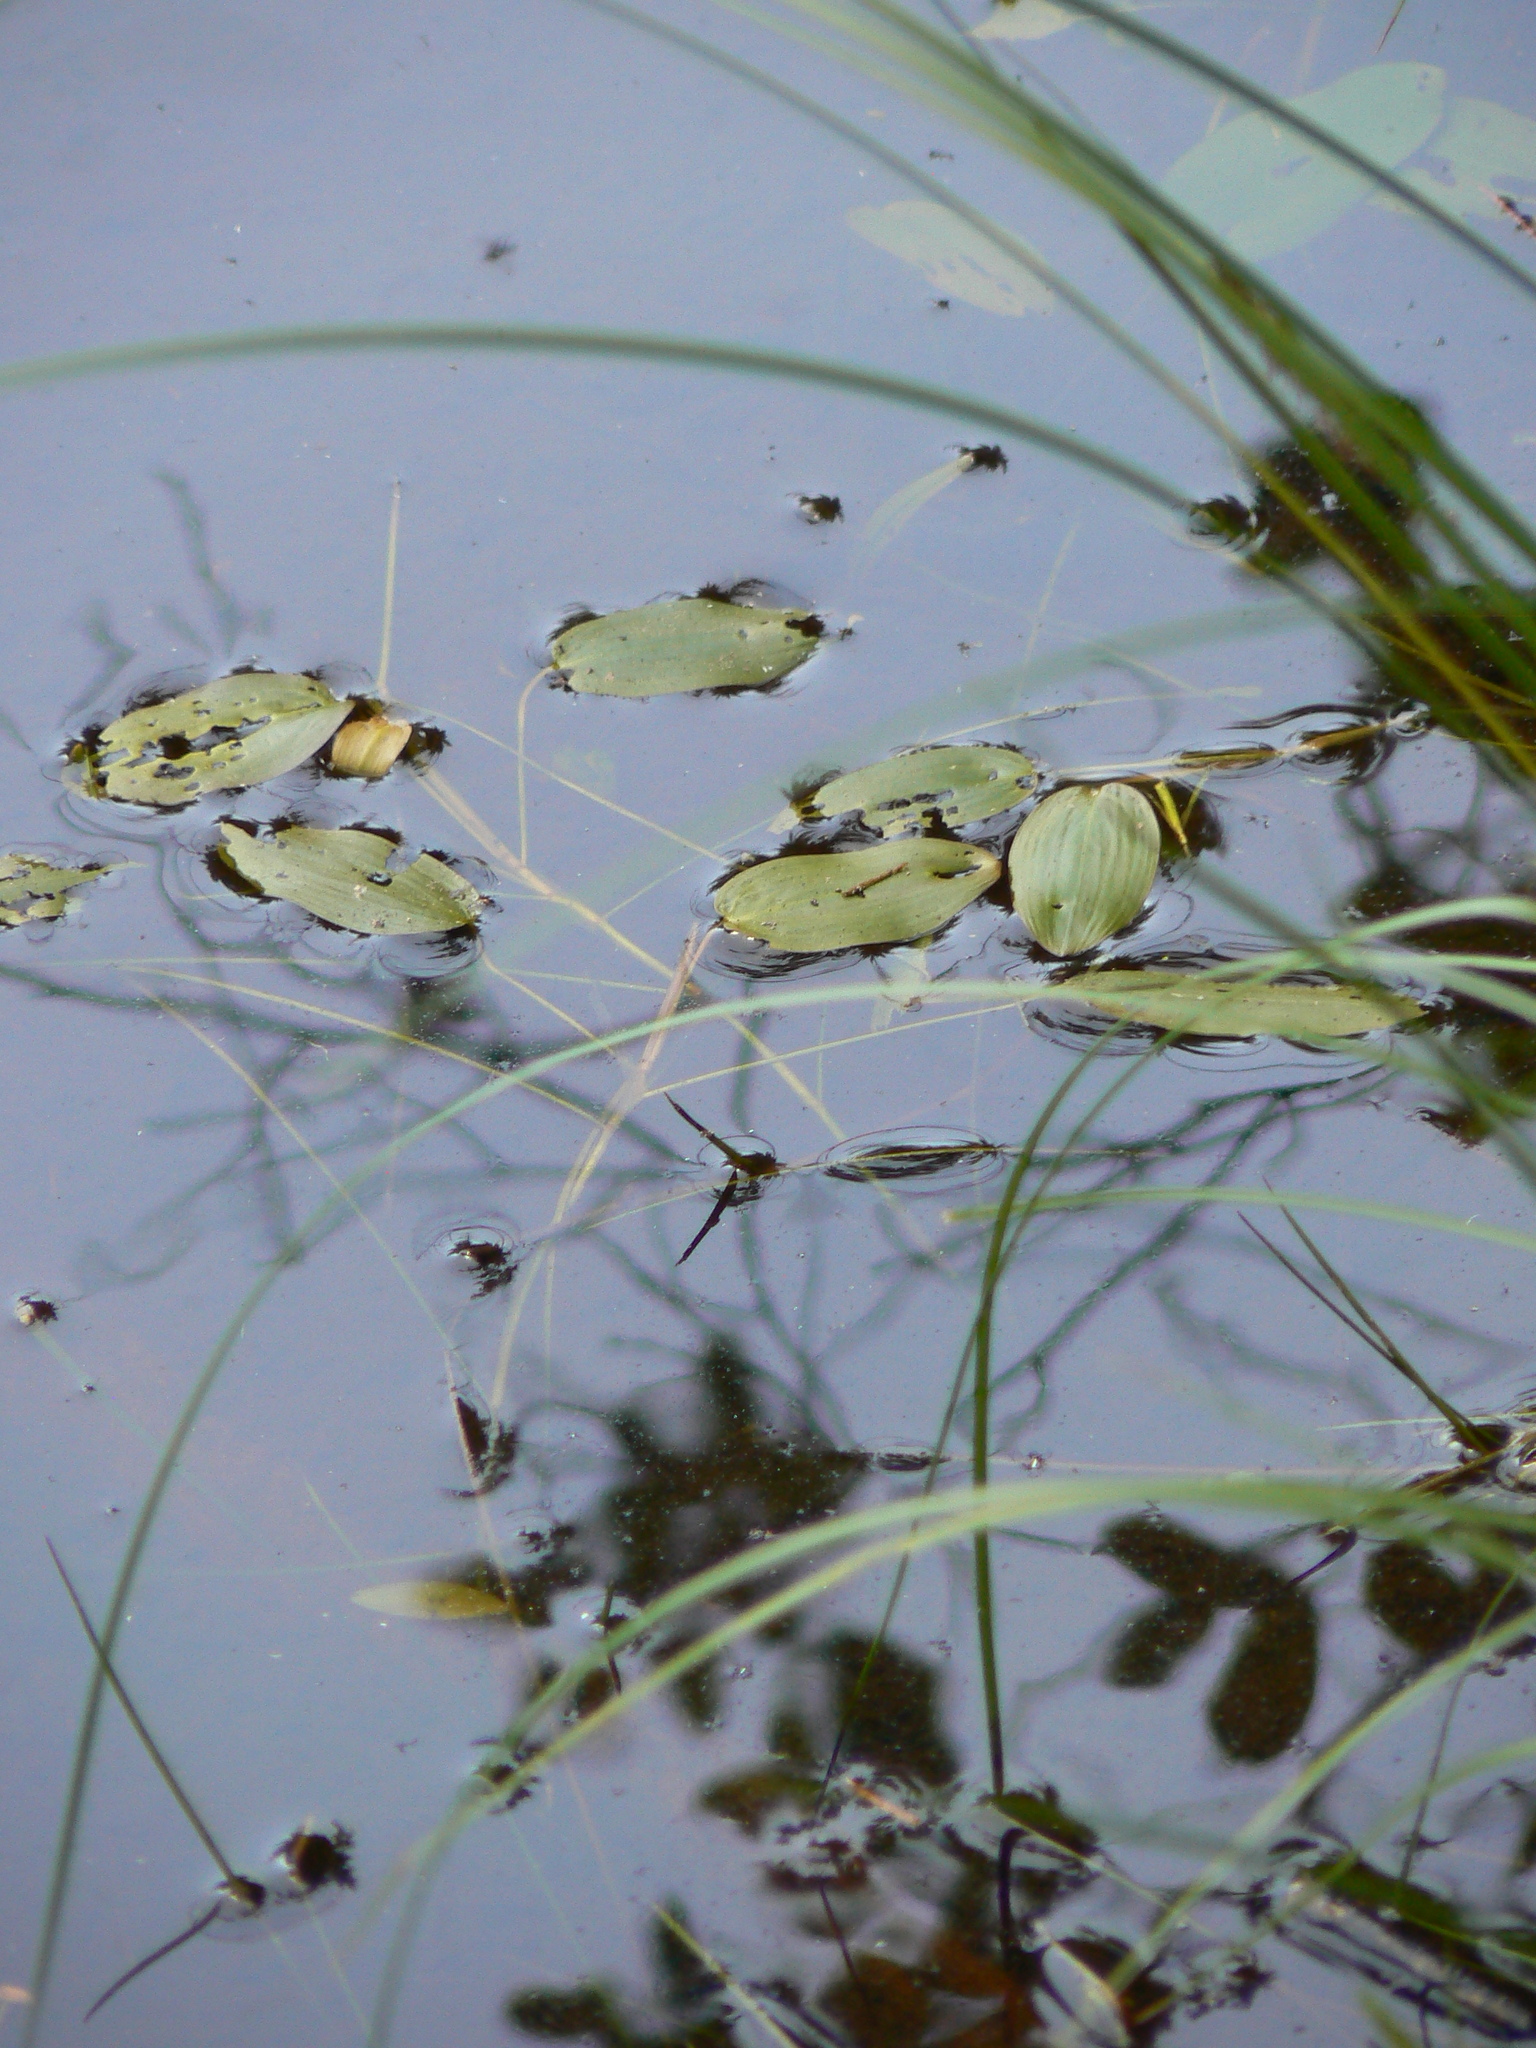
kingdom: Plantae
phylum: Tracheophyta
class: Liliopsida
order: Alismatales
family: Potamogetonaceae
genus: Potamogeton
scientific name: Potamogeton natans
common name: Broad-leaved pondweed
